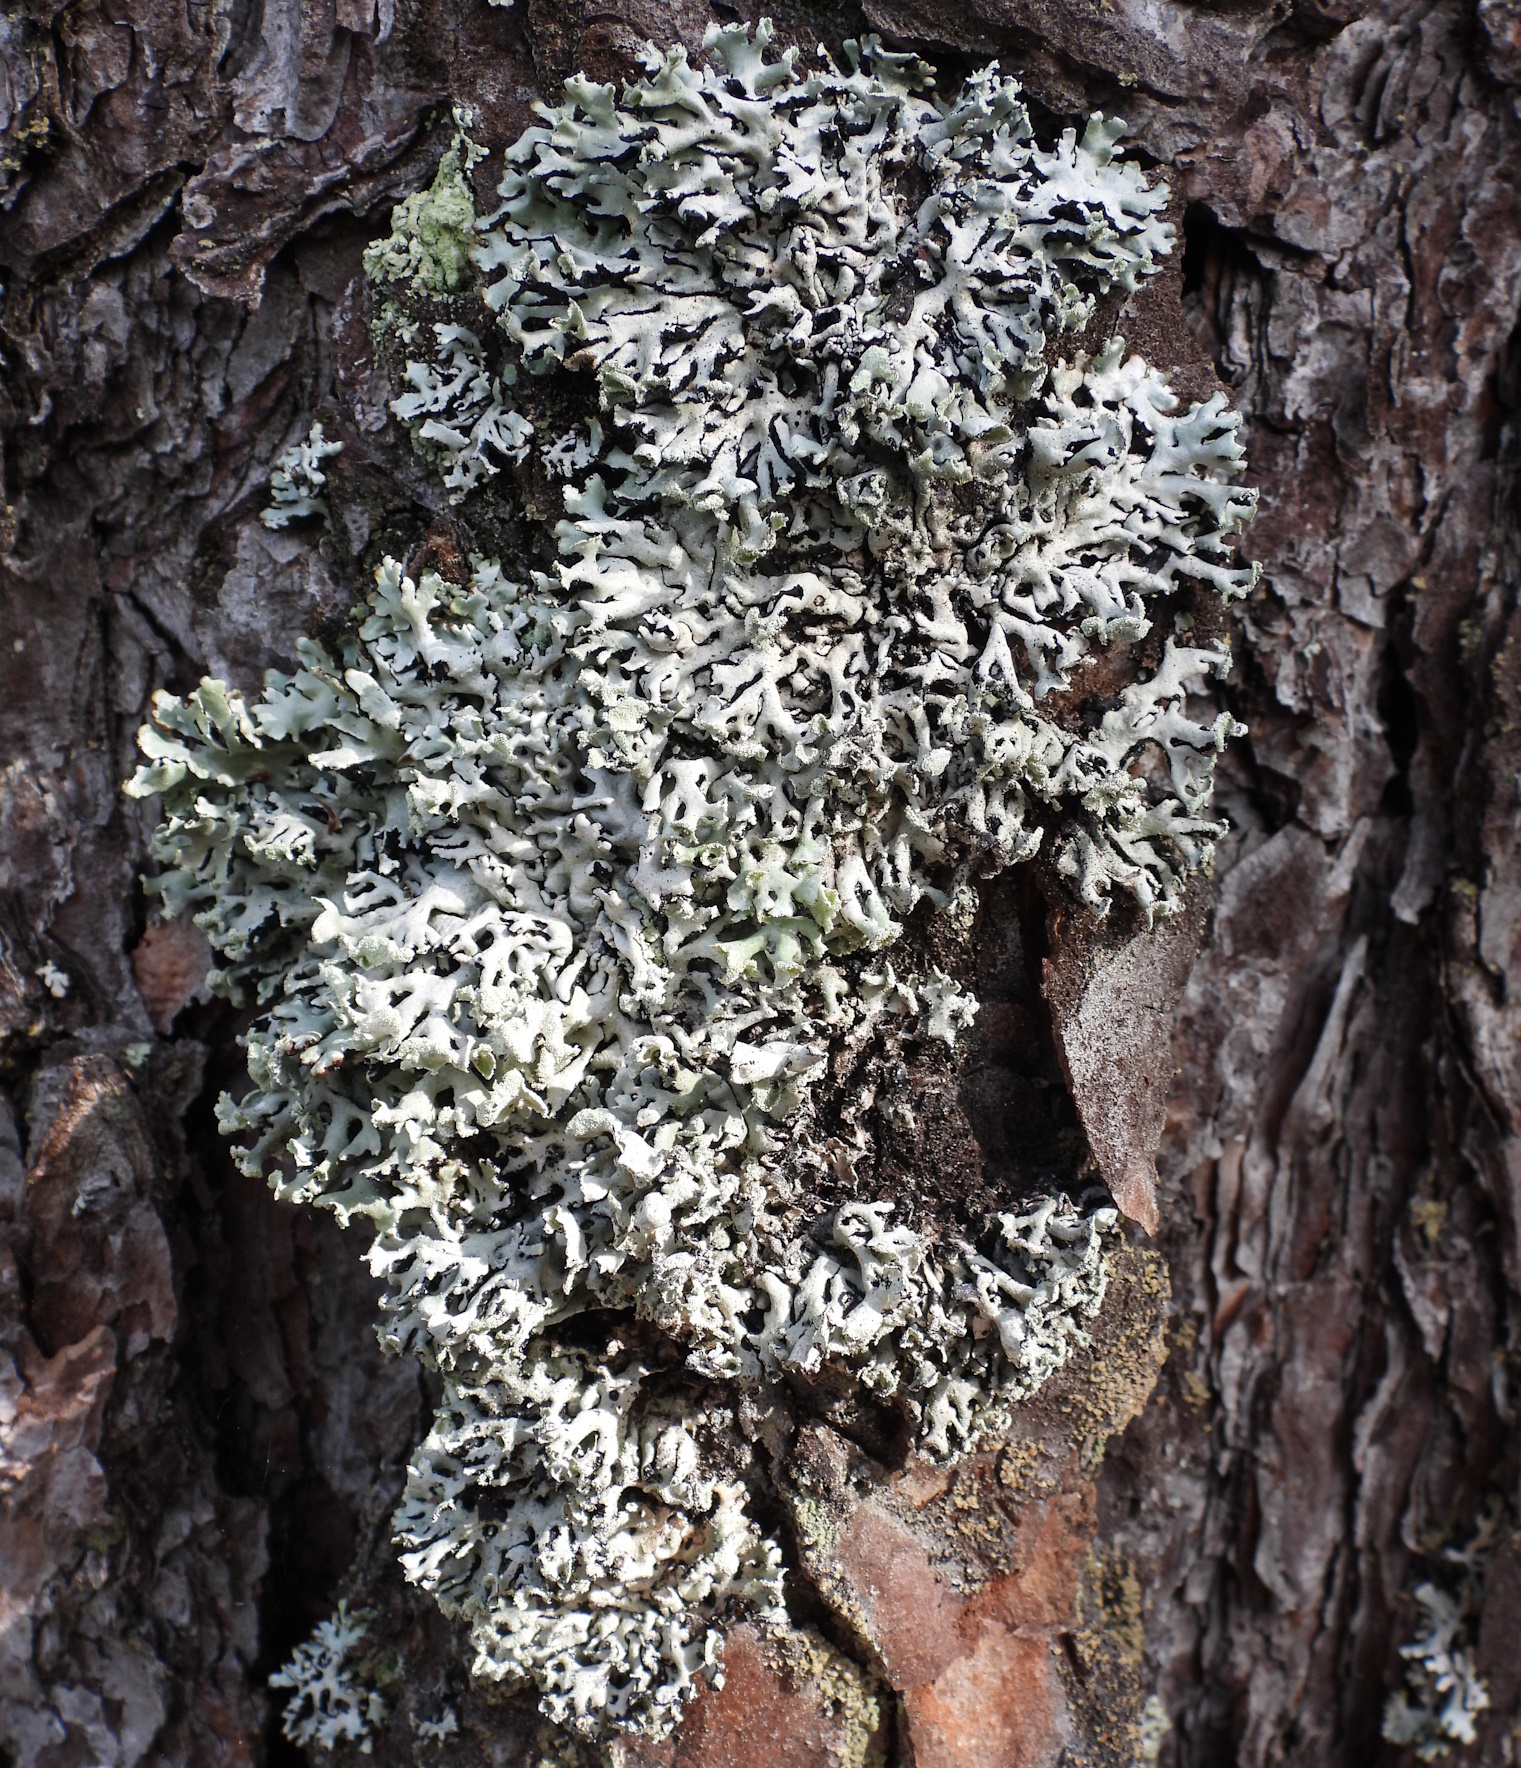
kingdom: Fungi
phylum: Ascomycota
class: Lecanoromycetes
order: Lecanorales
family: Parmeliaceae
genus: Hypogymnia
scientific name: Hypogymnia physodes
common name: Dark crottle
